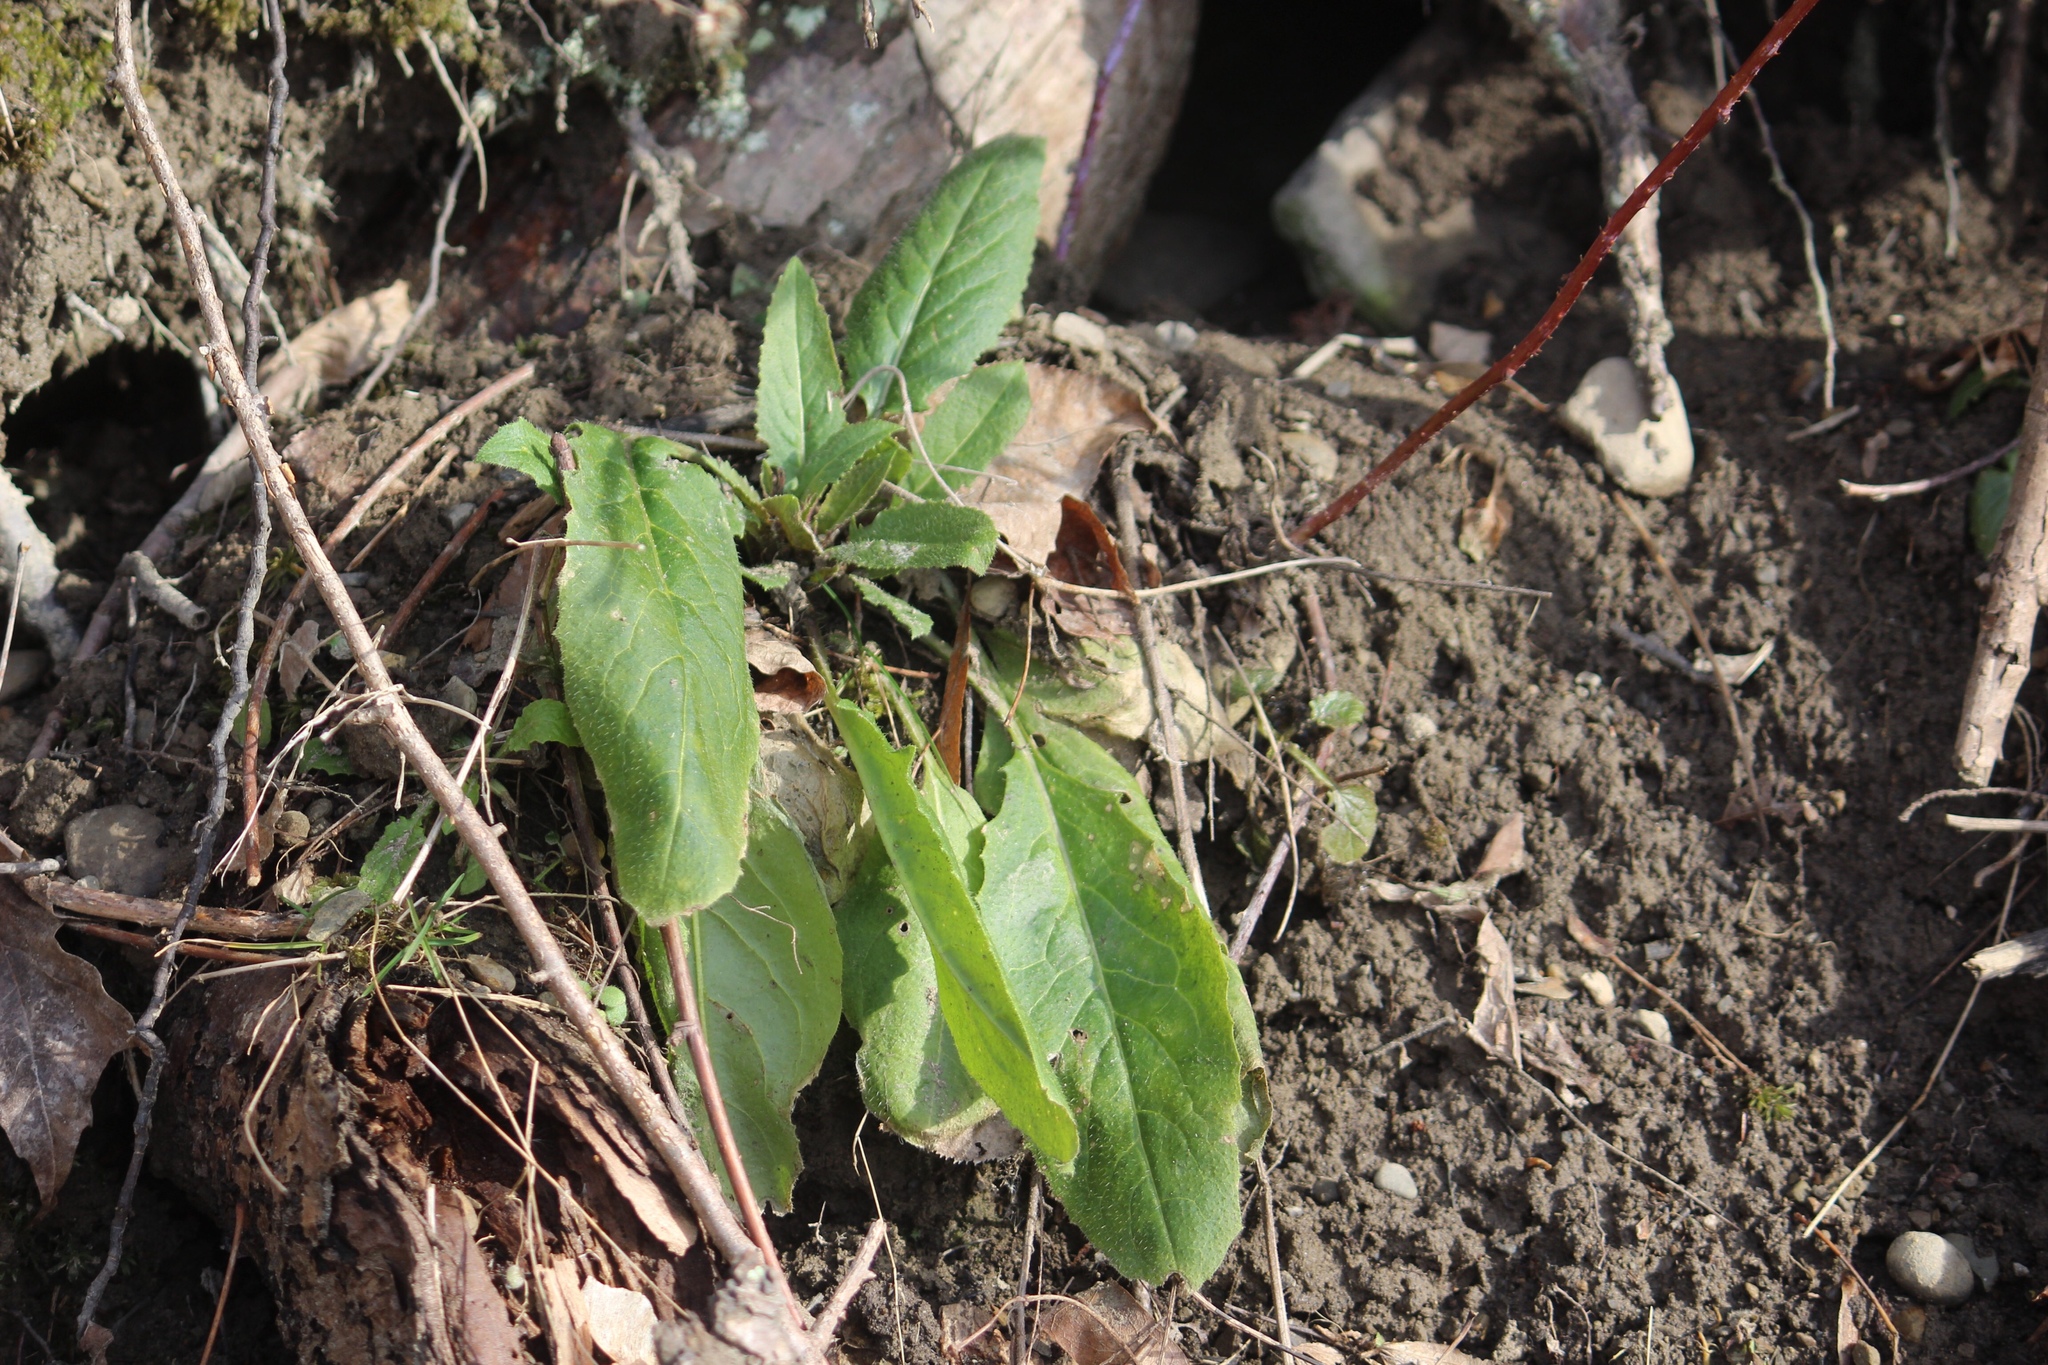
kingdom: Plantae
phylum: Tracheophyta
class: Magnoliopsida
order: Brassicales
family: Brassicaceae
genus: Hesperis
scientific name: Hesperis matronalis
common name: Dame's-violet
